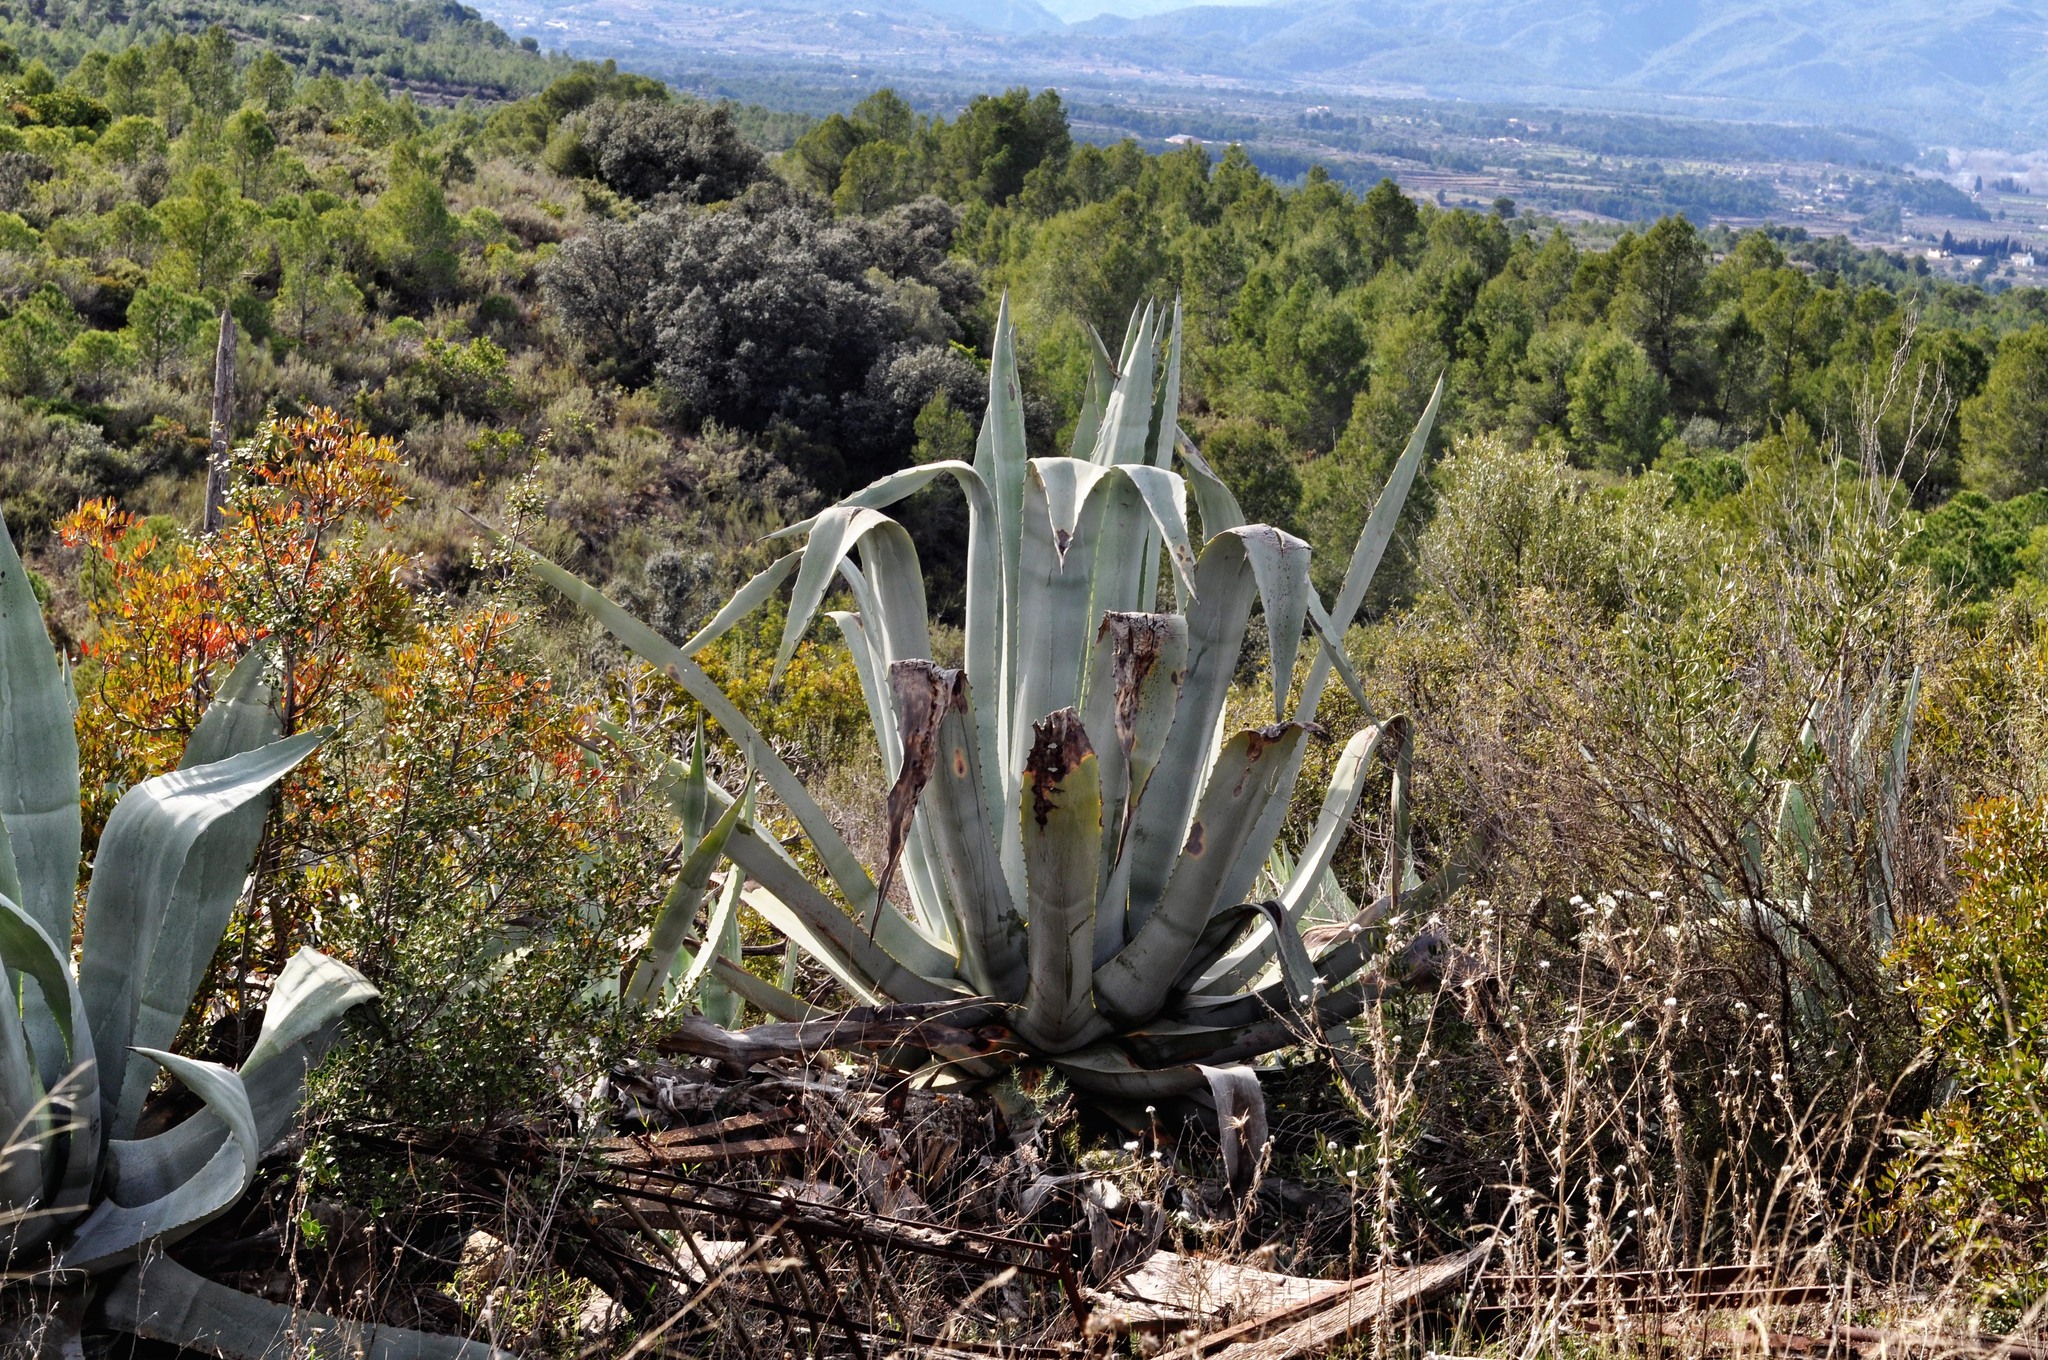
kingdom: Plantae
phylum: Tracheophyta
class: Liliopsida
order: Asparagales
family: Asparagaceae
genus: Agave
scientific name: Agave americana
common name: Centuryplant
